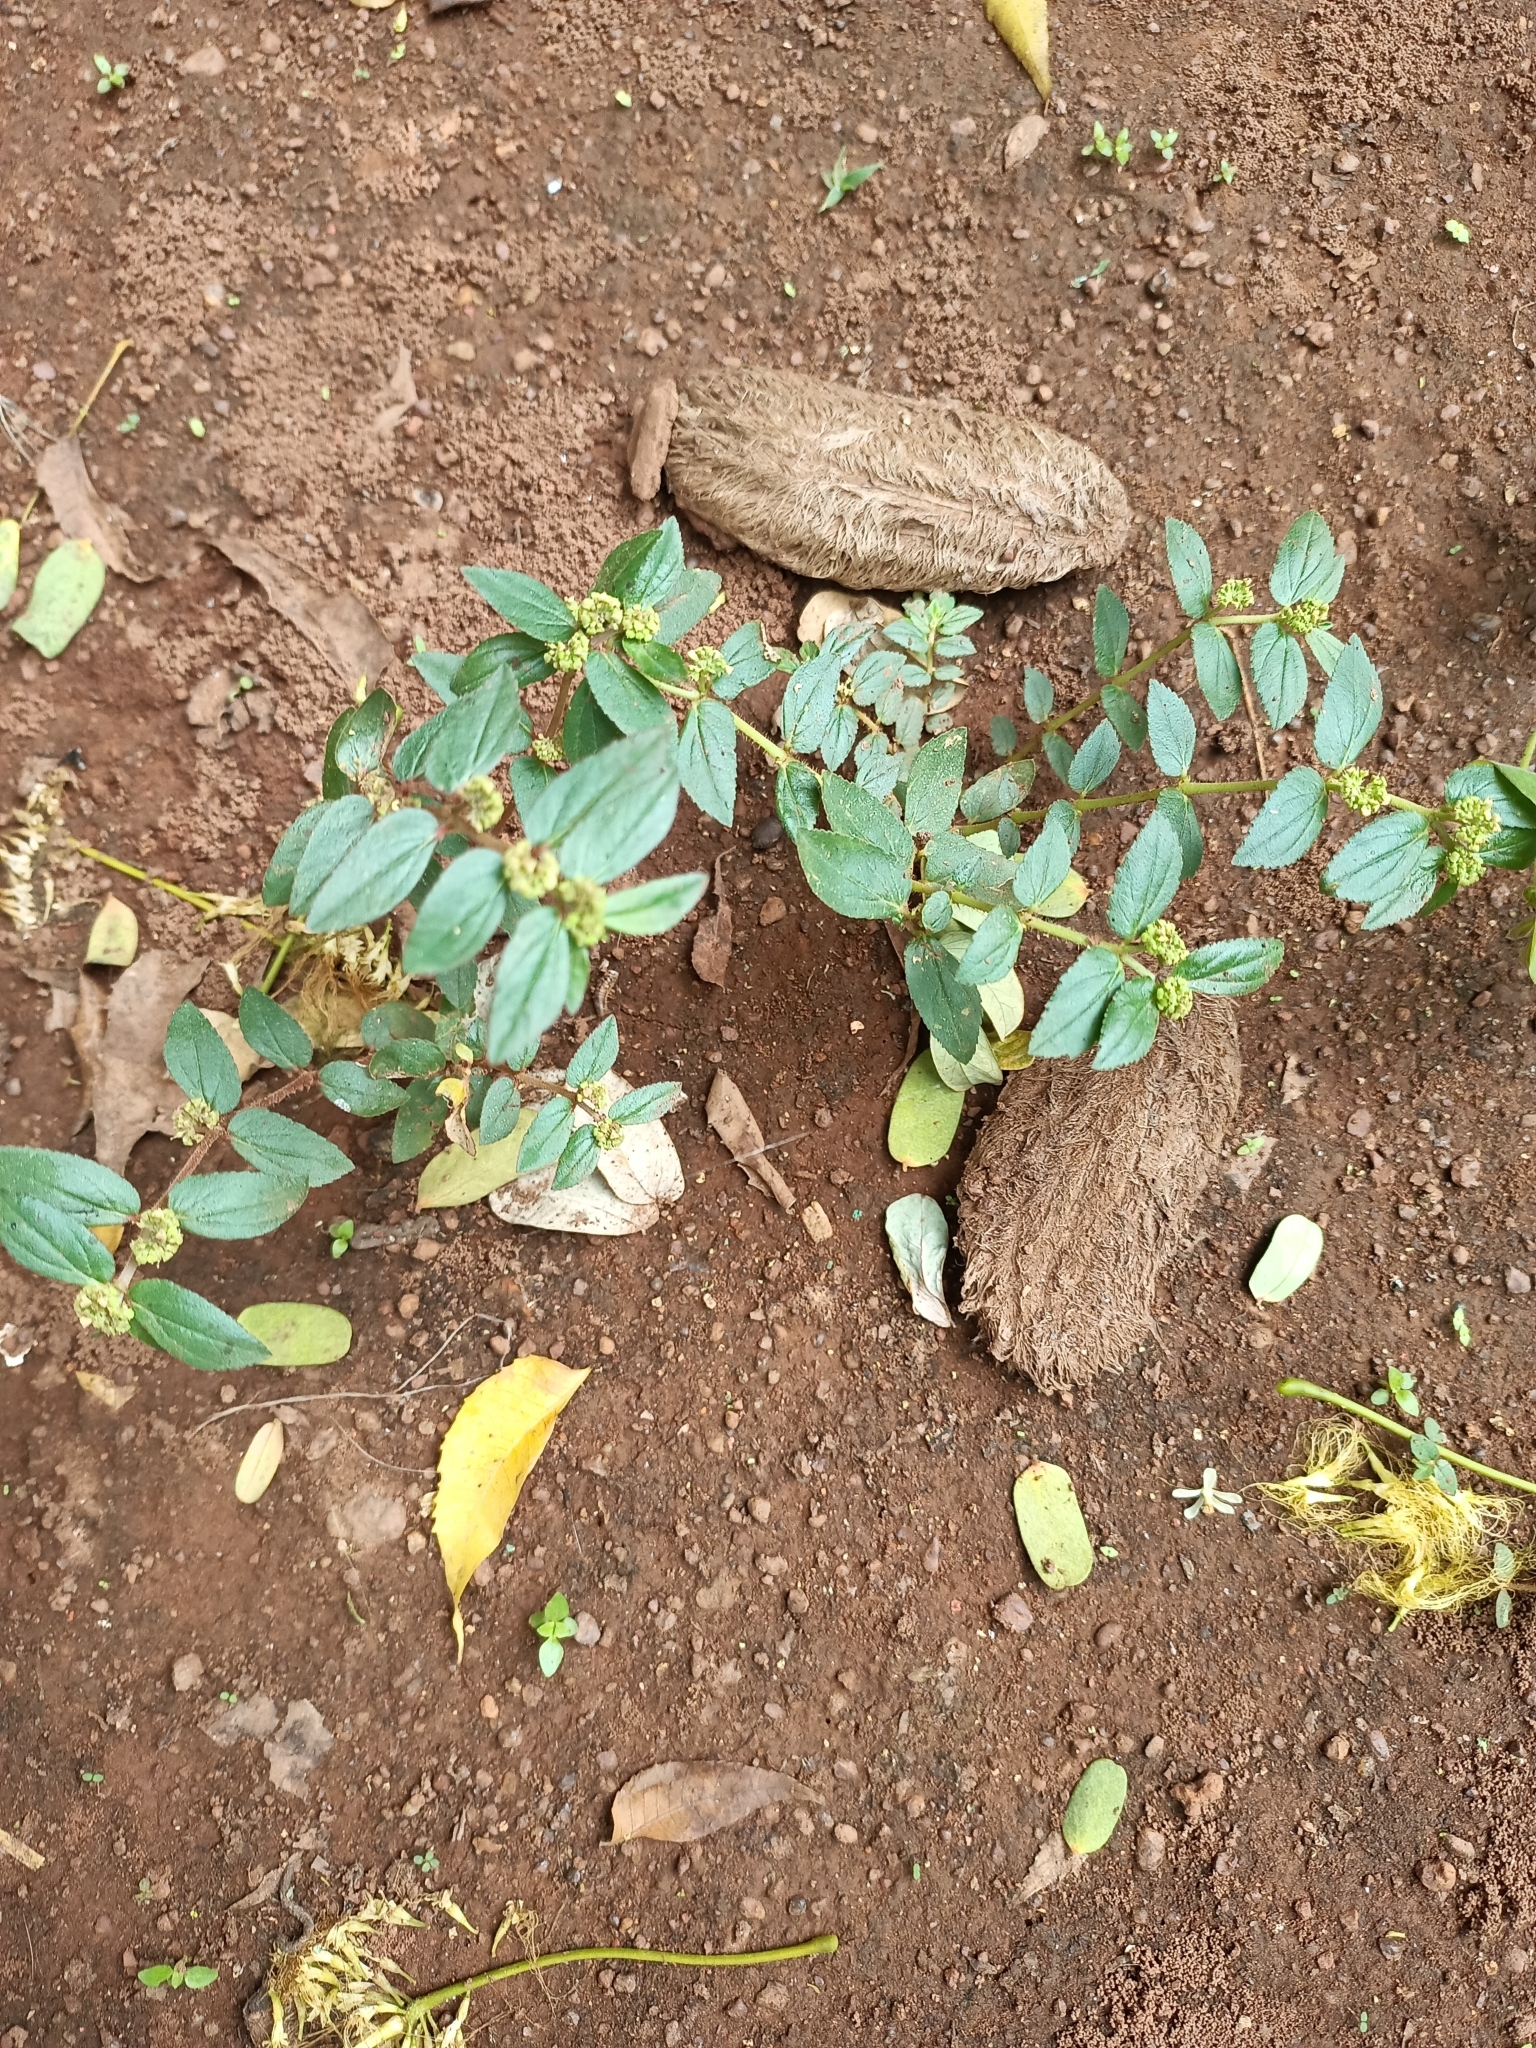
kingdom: Plantae
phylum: Tracheophyta
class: Magnoliopsida
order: Malpighiales
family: Euphorbiaceae
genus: Euphorbia
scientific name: Euphorbia hirta
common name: Pillpod sandmat
